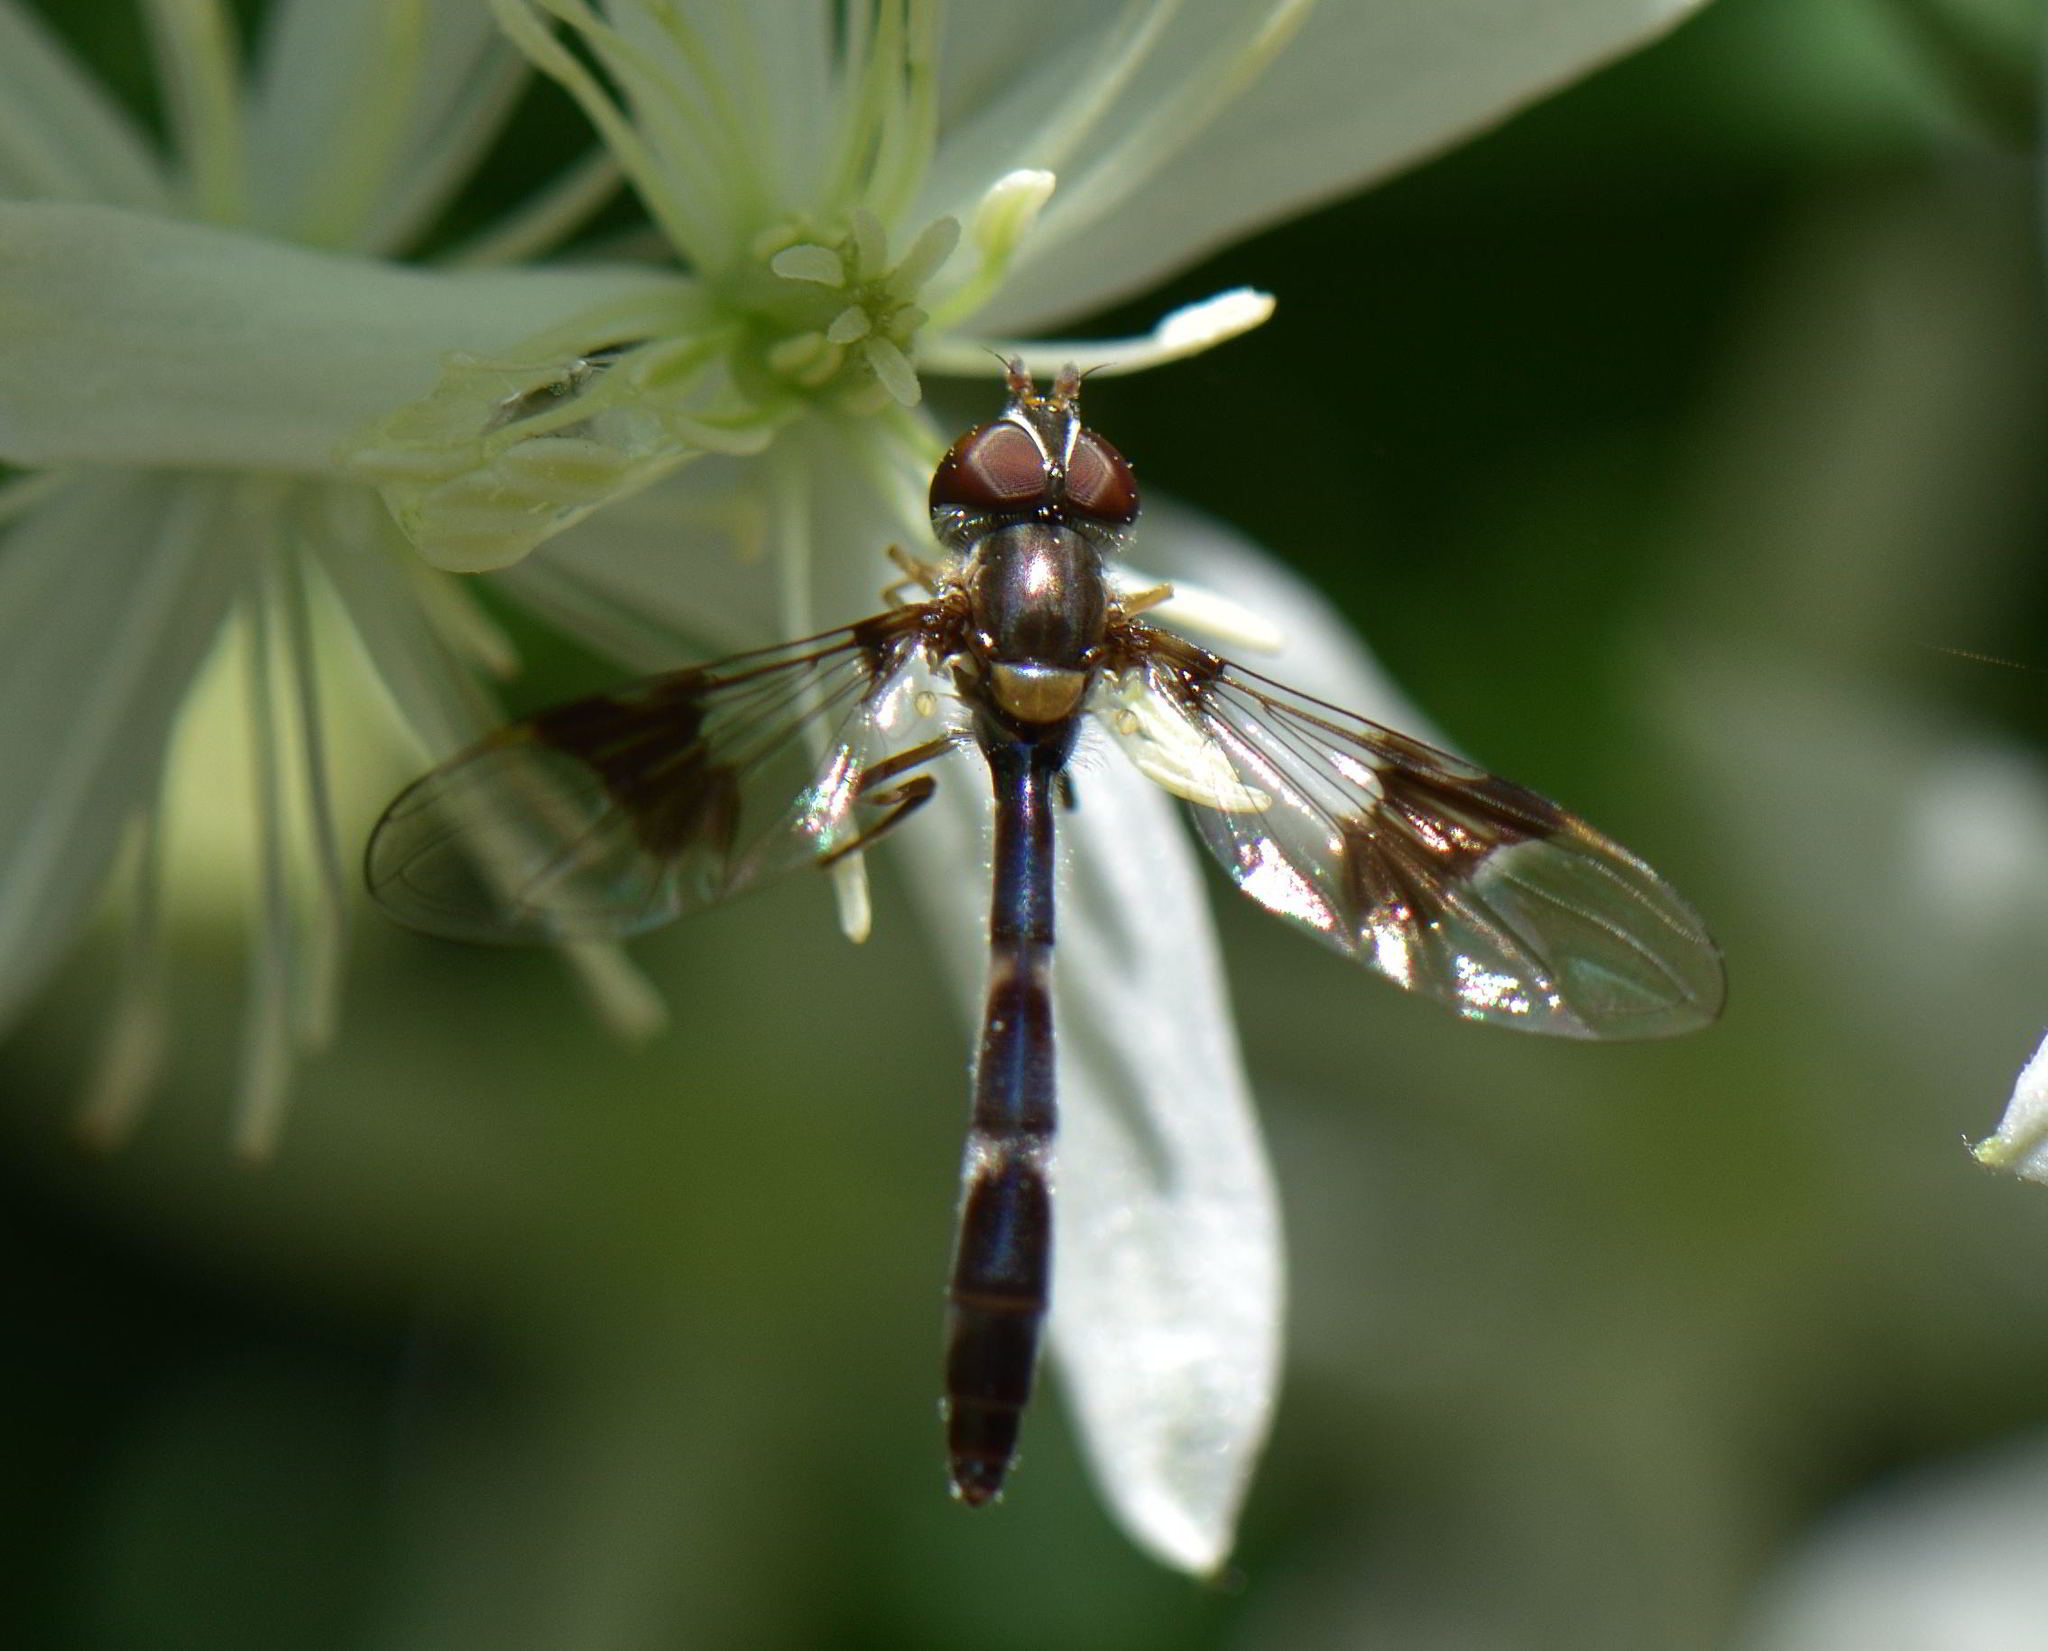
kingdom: Animalia
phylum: Arthropoda
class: Insecta
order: Diptera
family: Syrphidae
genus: Hypocritanus
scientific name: Hypocritanus fascipennis
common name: Eastern band-winged hover fly
